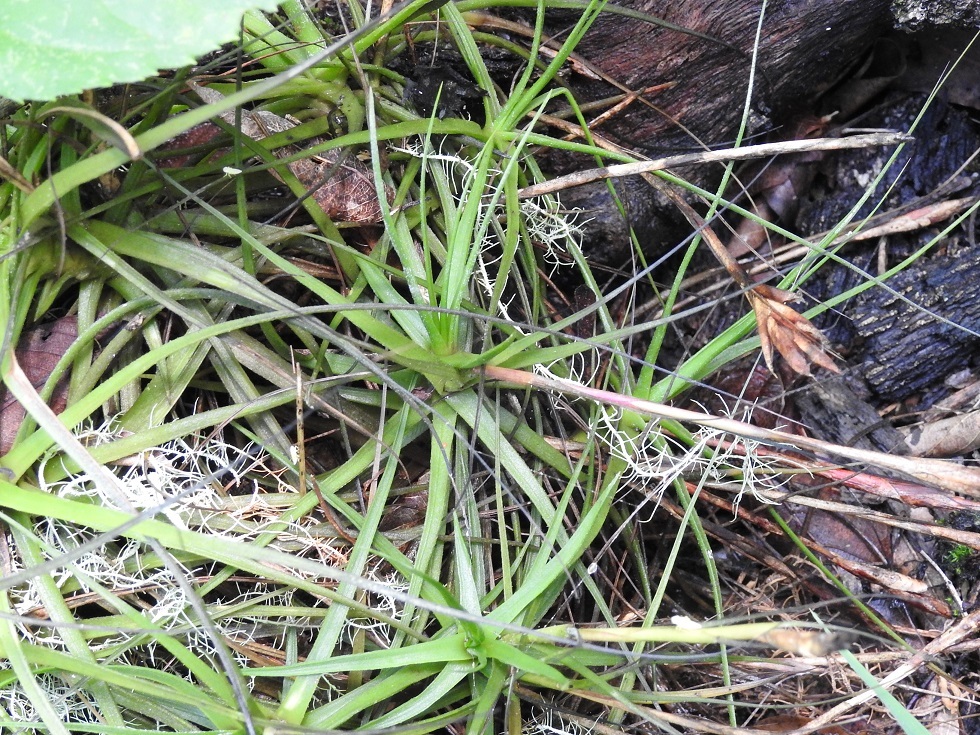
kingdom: Plantae
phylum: Tracheophyta
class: Liliopsida
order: Poales
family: Bromeliaceae
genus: Tillandsia
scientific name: Tillandsia schiedeana
